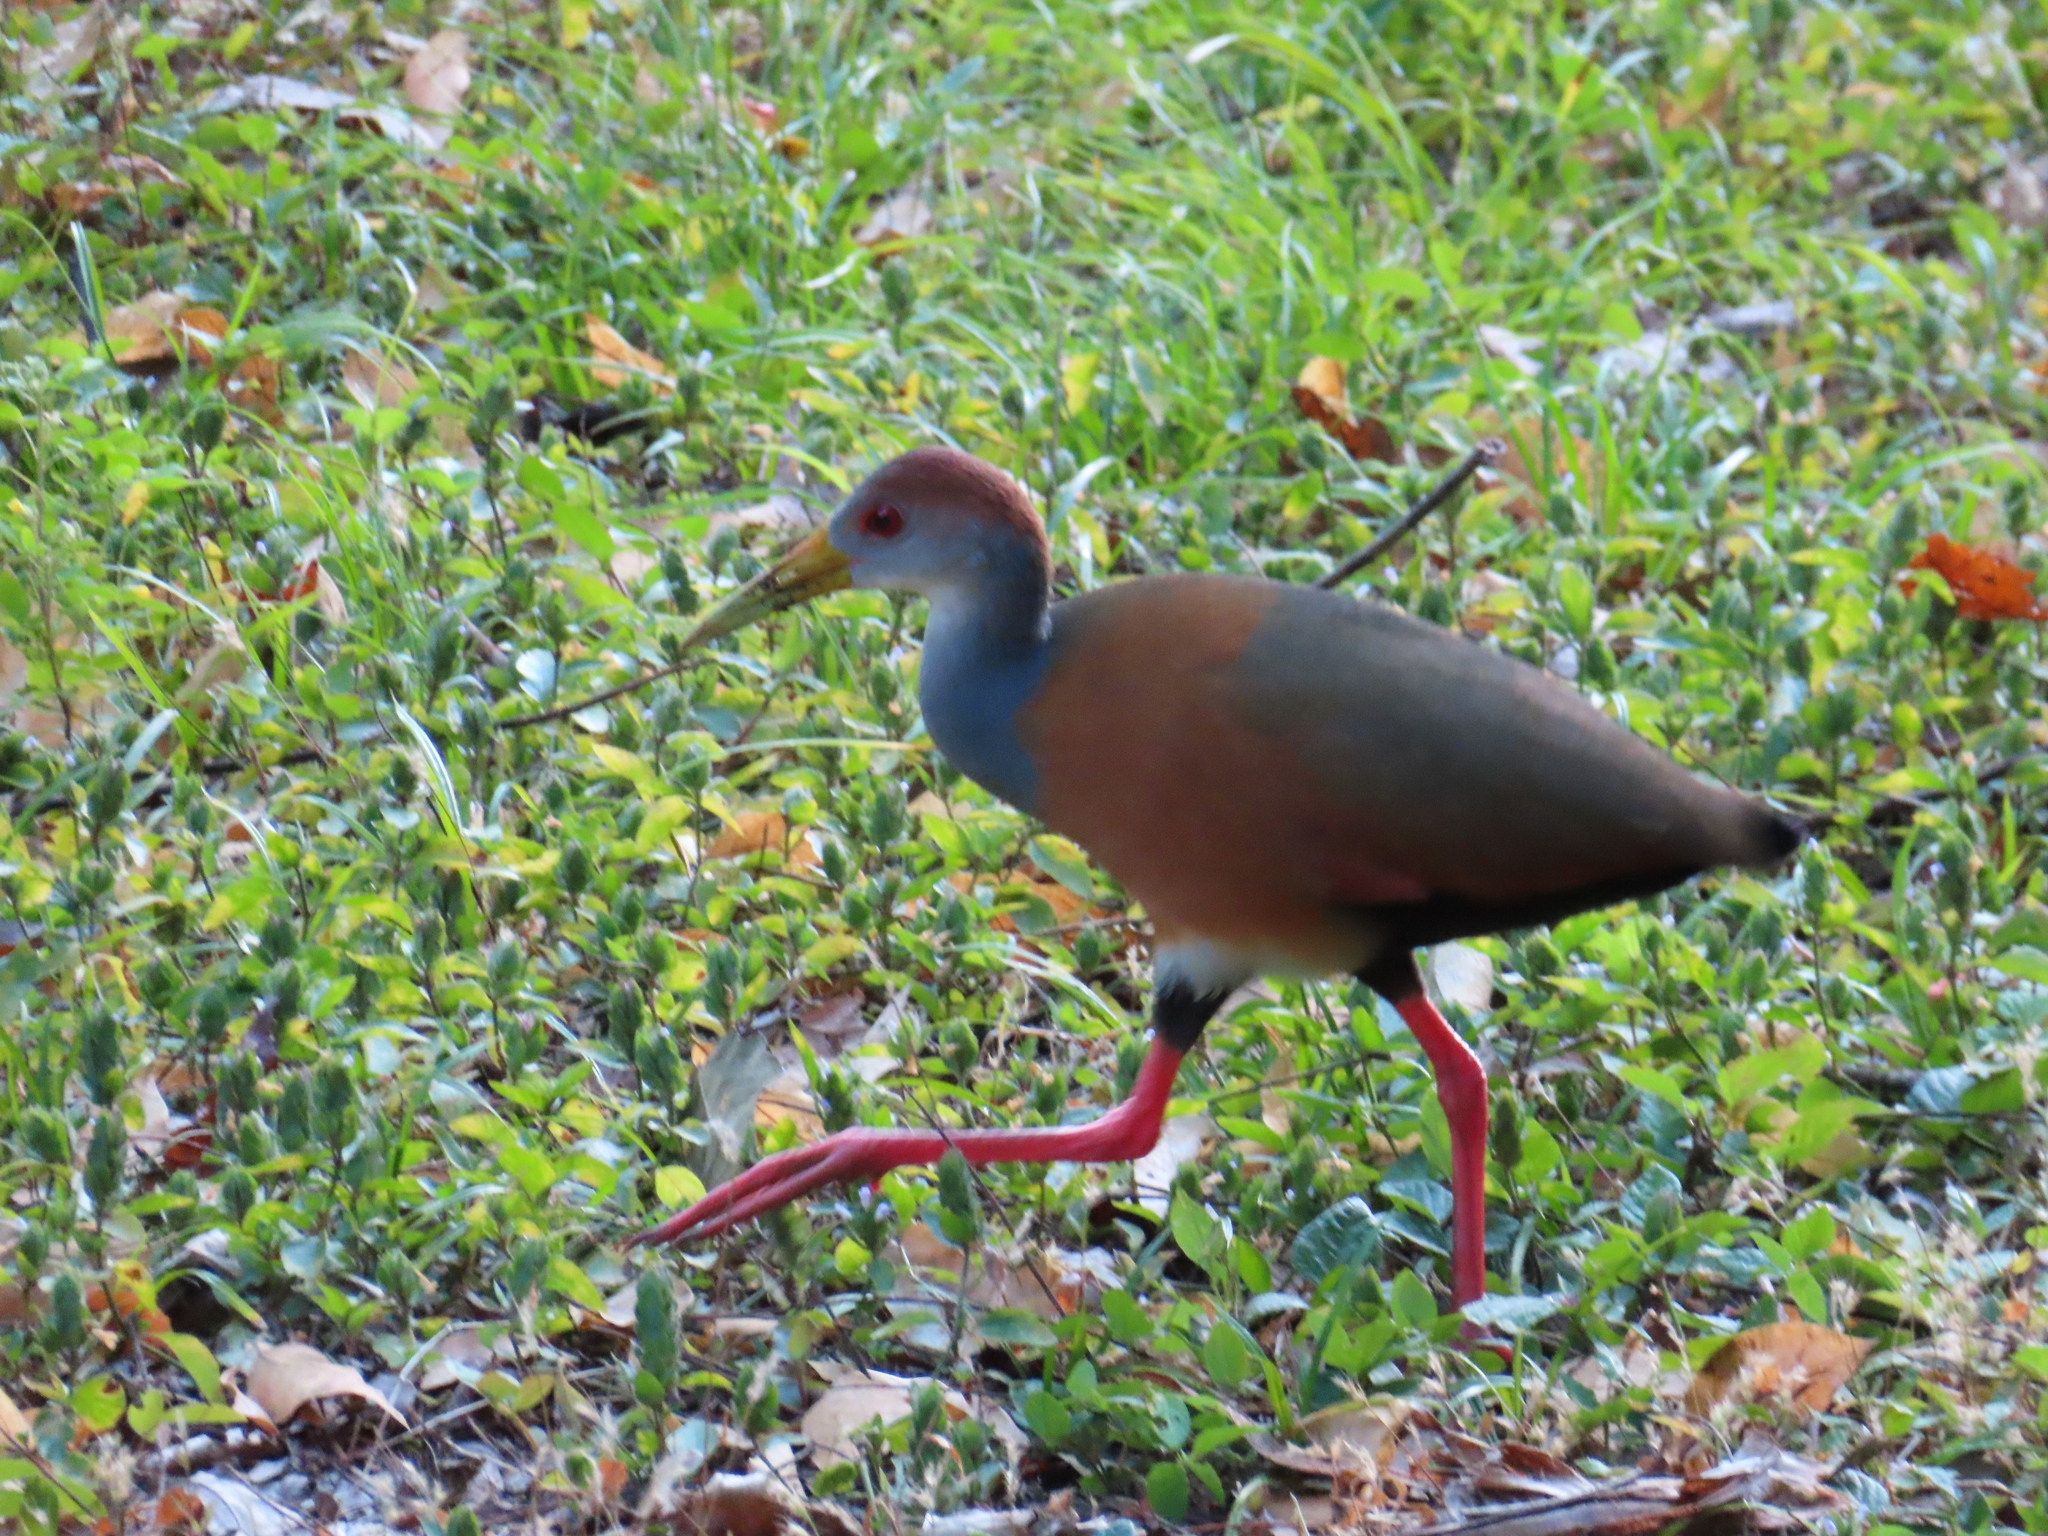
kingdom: Animalia
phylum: Chordata
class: Aves
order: Gruiformes
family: Rallidae
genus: Aramides
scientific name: Aramides albiventris
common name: Russet-naped wood-rail
